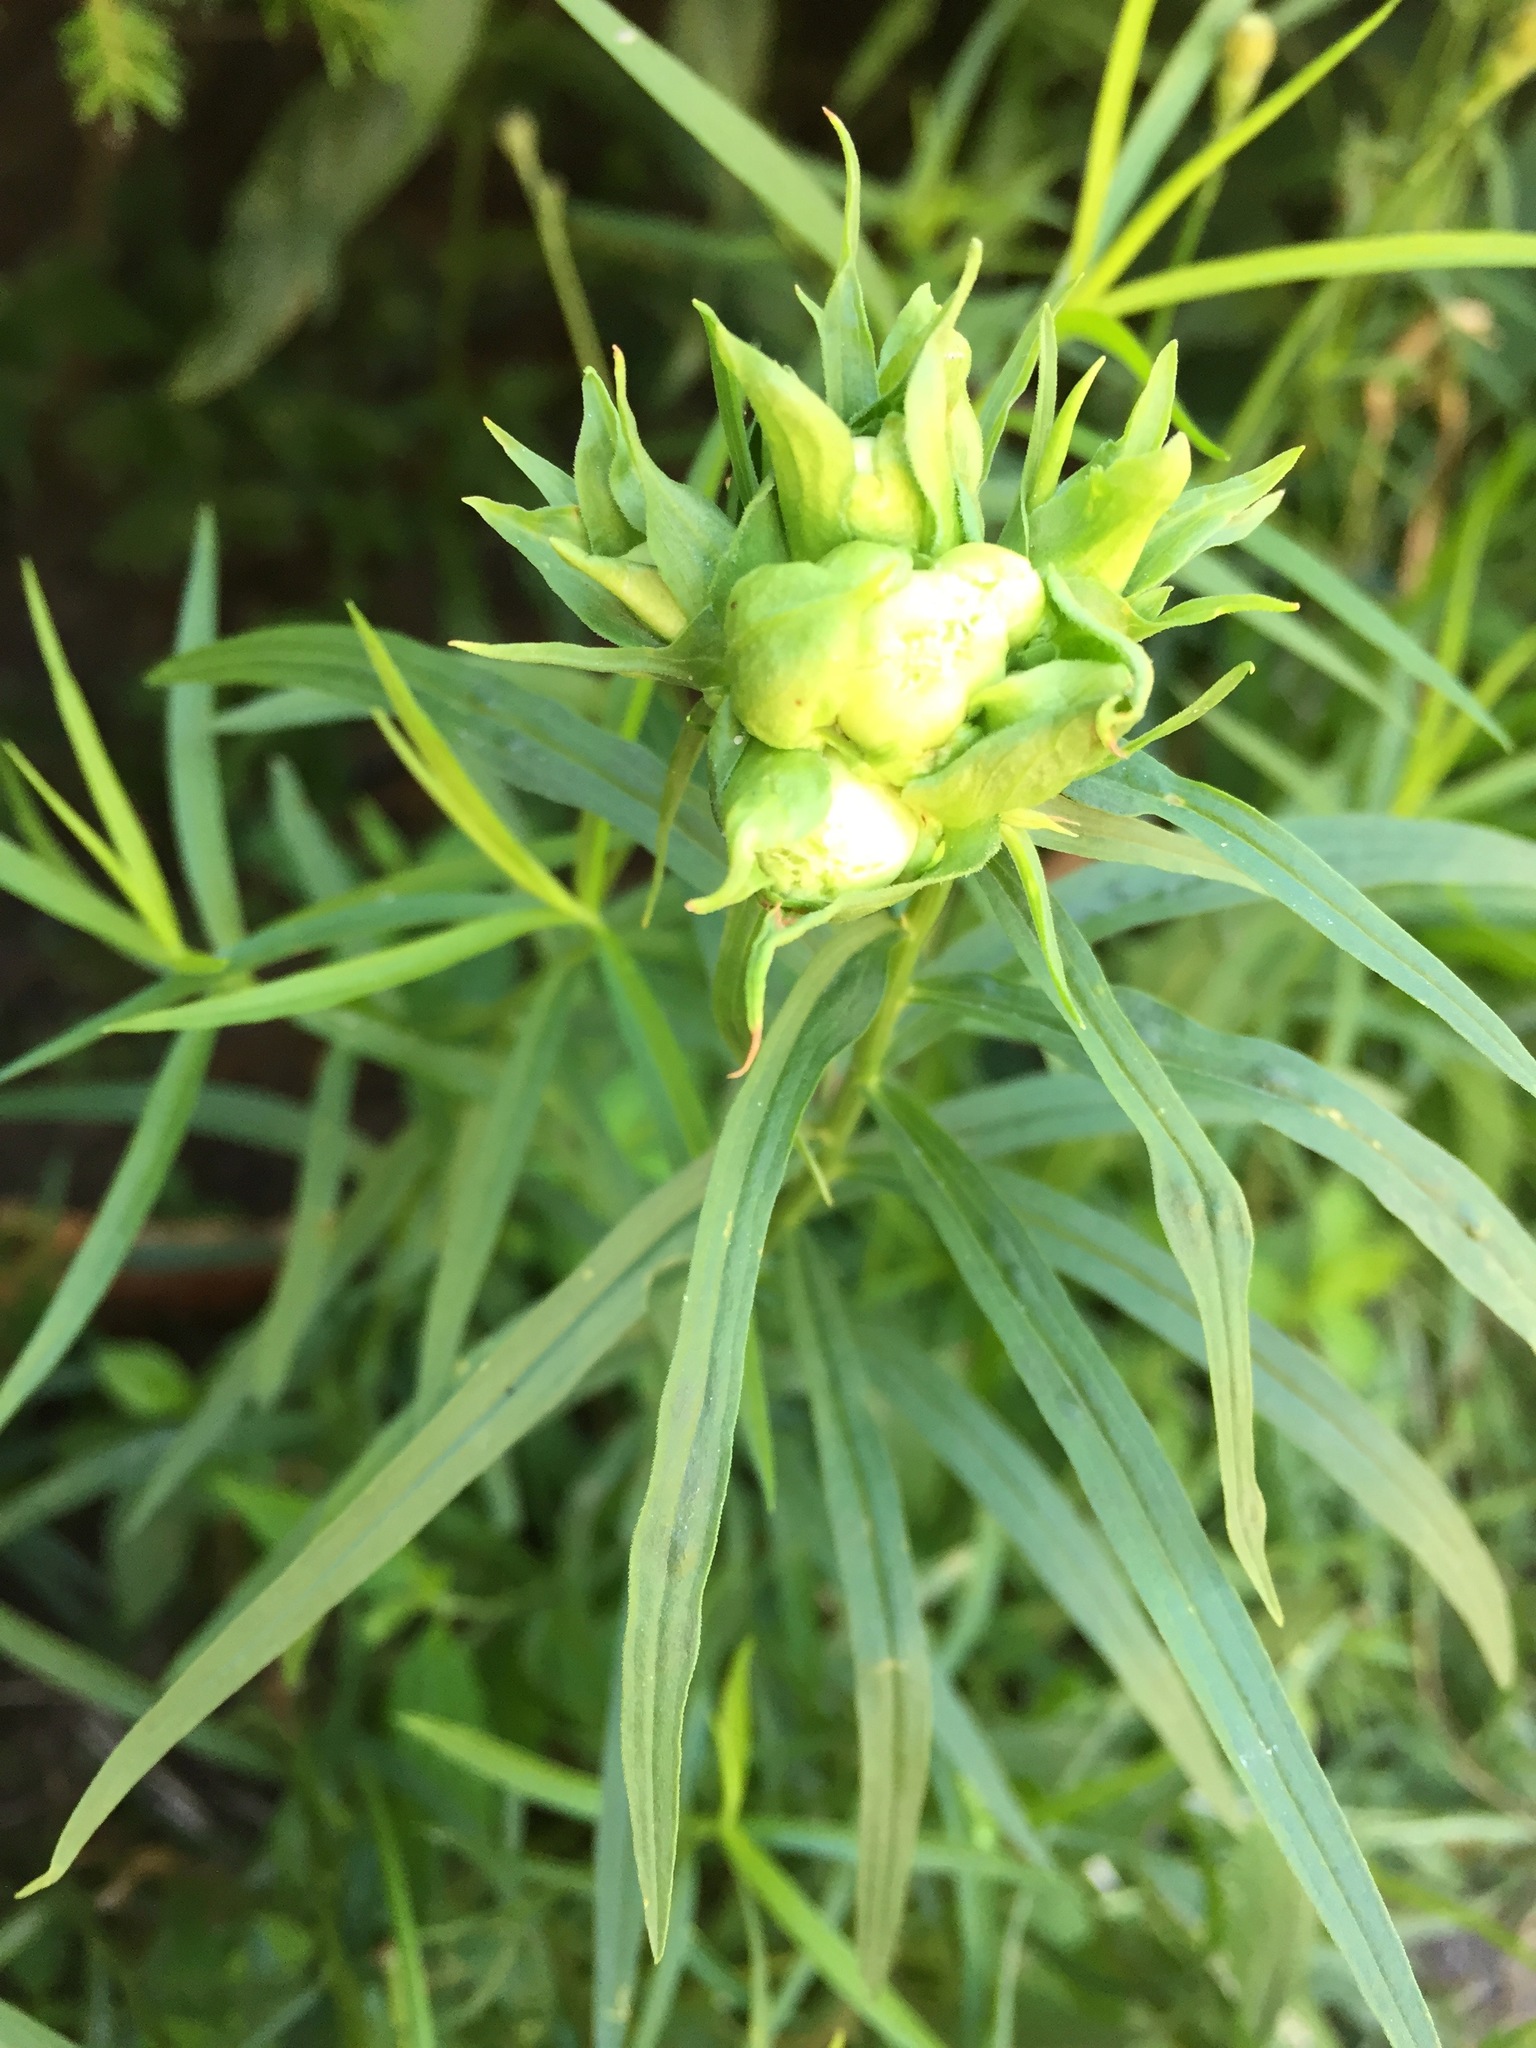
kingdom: Animalia
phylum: Arthropoda
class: Insecta
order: Diptera
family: Cecidomyiidae
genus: Rhopalomyia
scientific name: Rhopalomyia lobata
